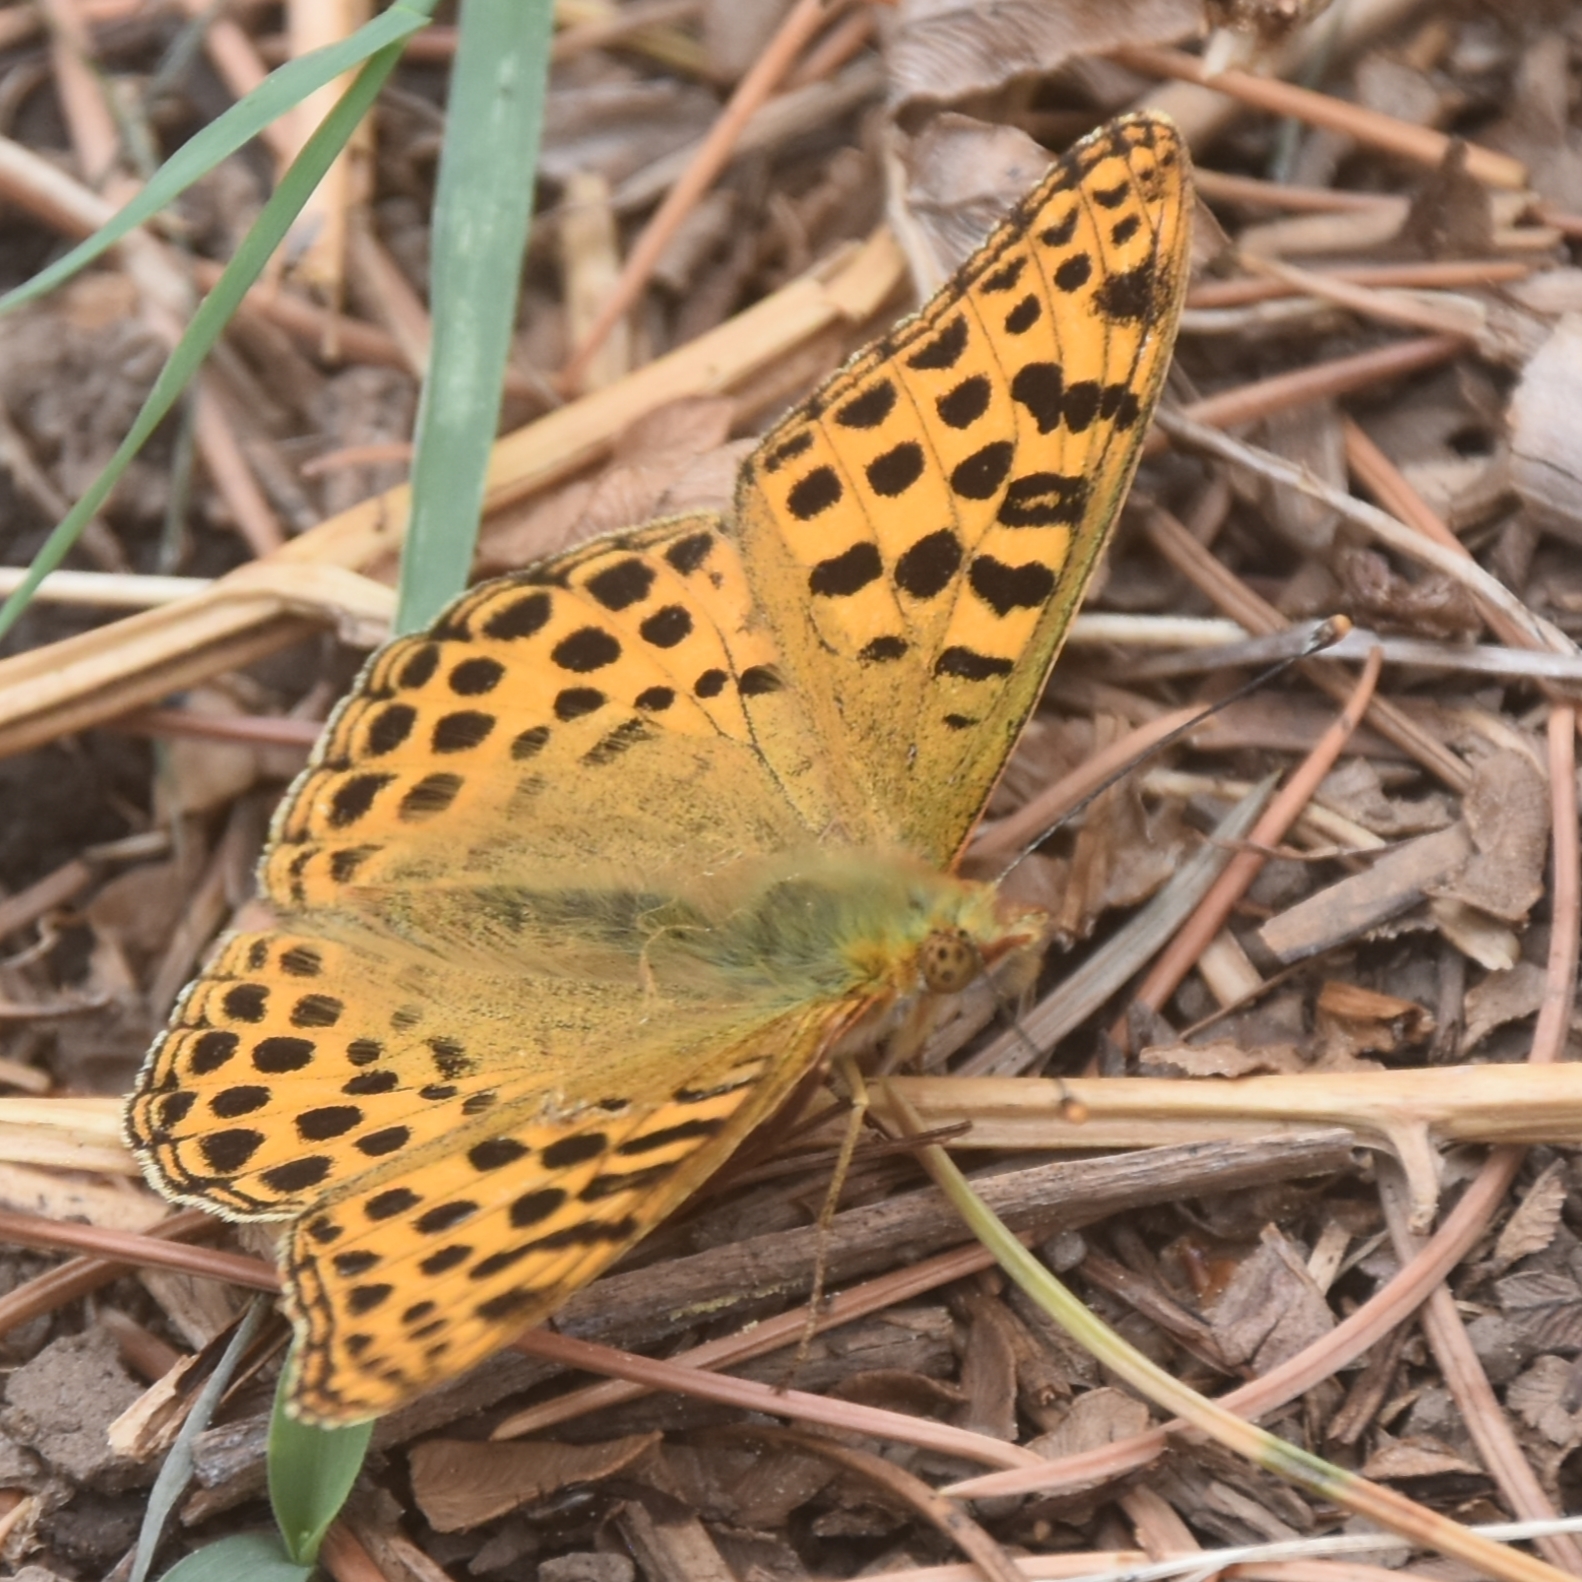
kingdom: Animalia
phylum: Arthropoda
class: Insecta
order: Lepidoptera
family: Nymphalidae
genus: Issoria
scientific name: Issoria
